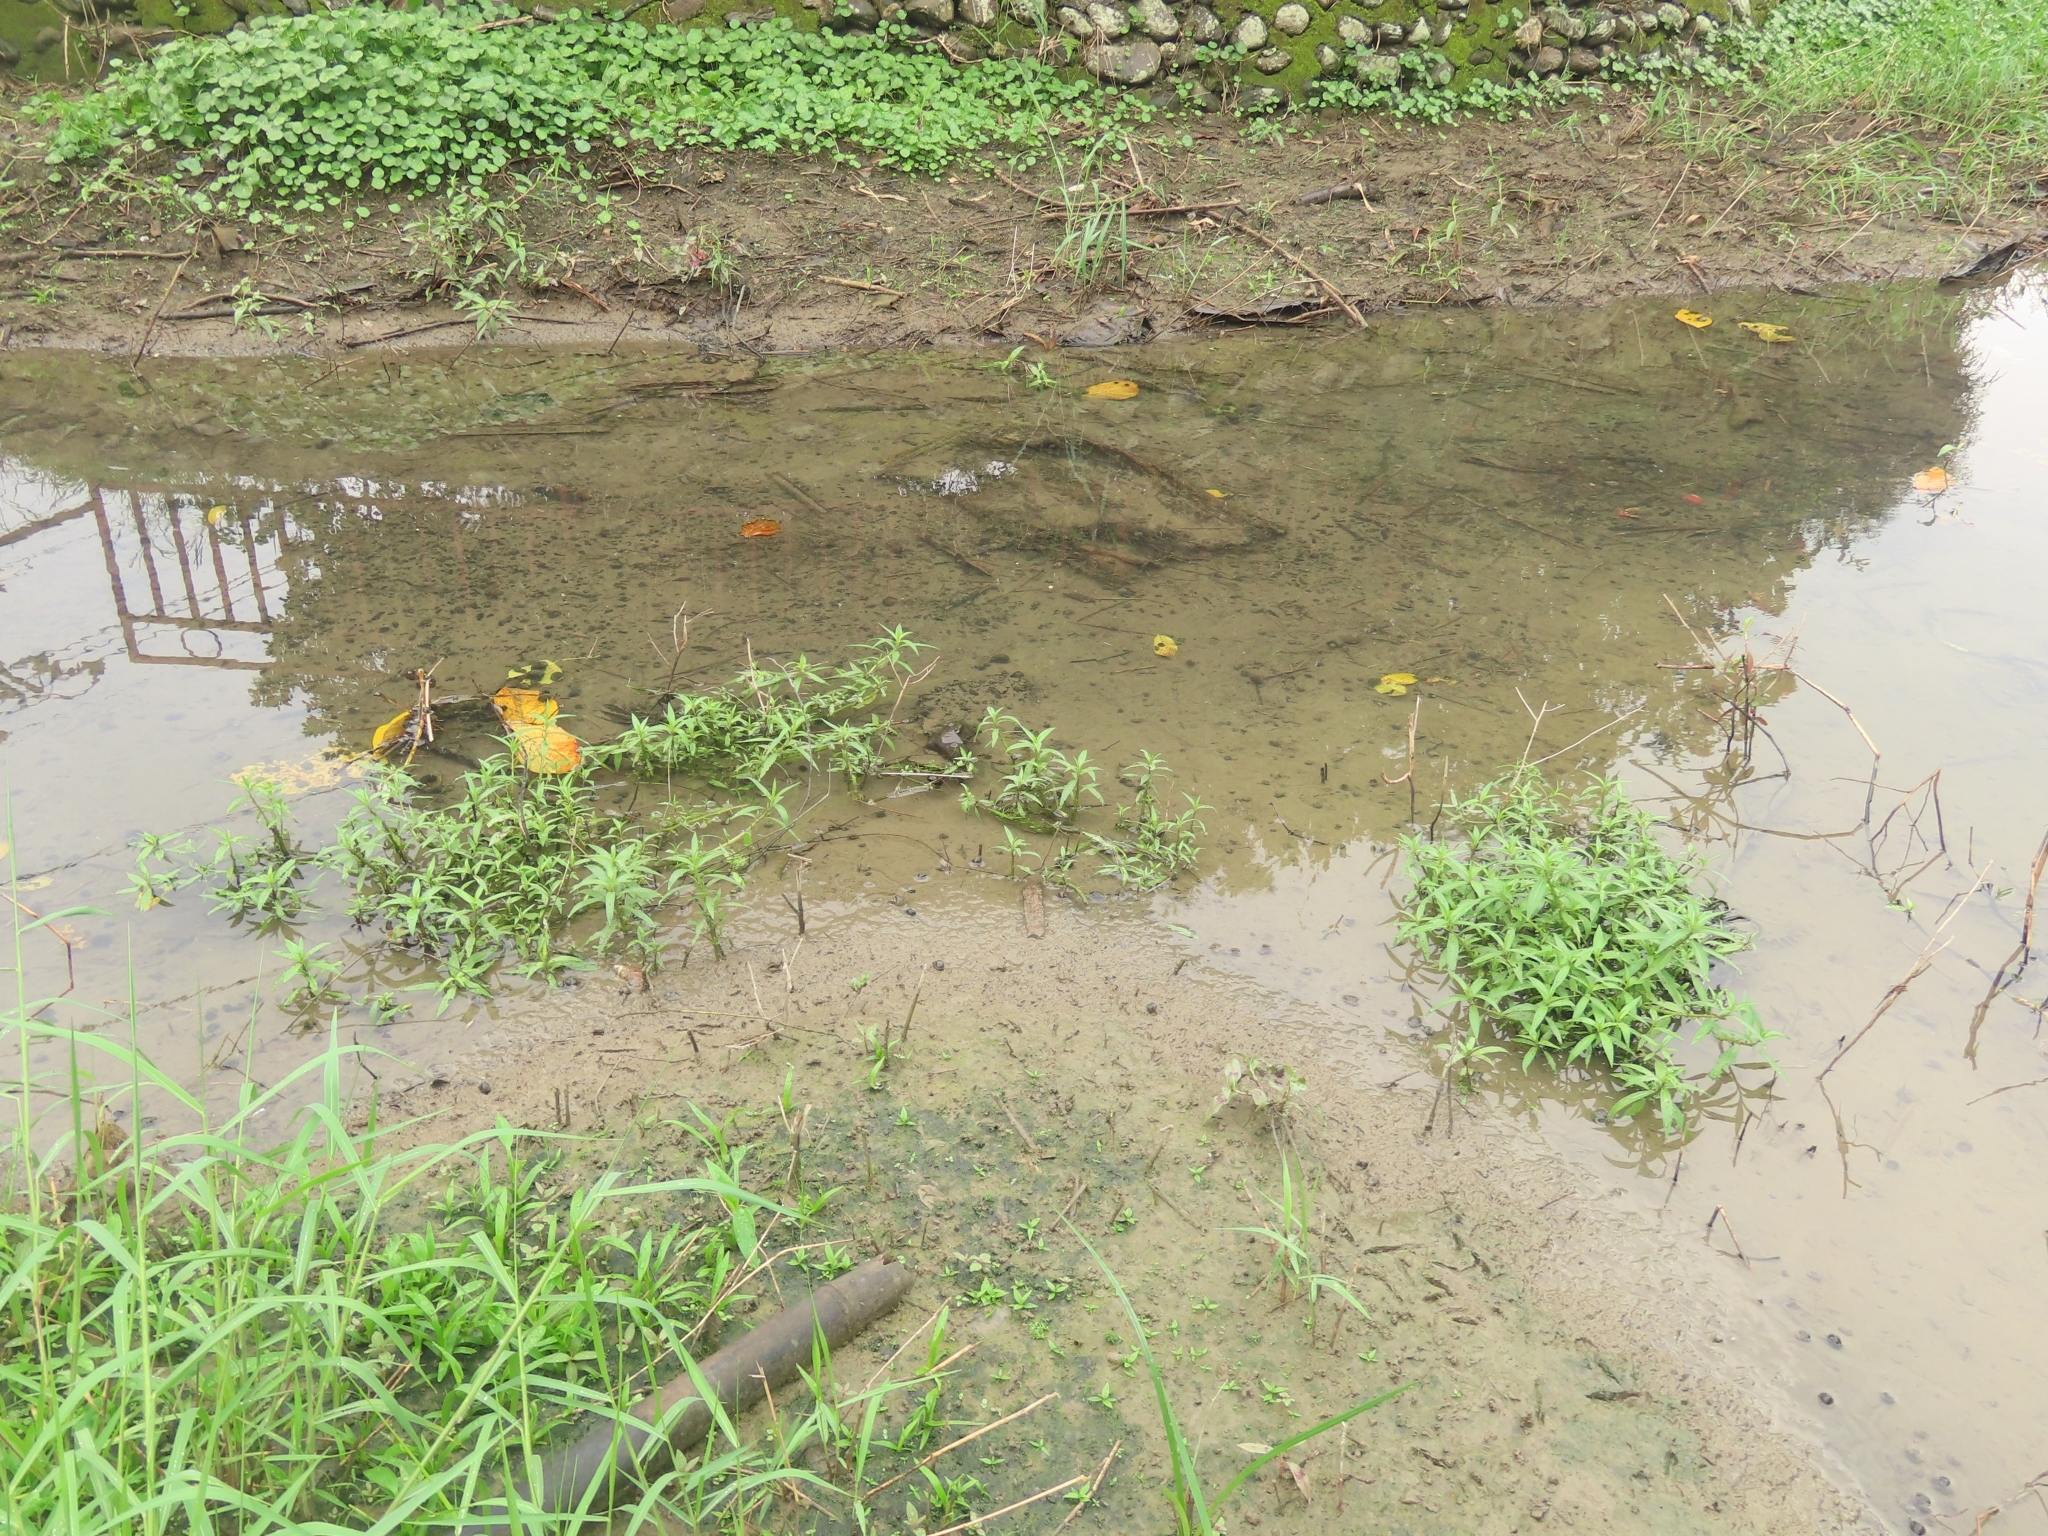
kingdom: Plantae
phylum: Tracheophyta
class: Magnoliopsida
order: Solanales
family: Hydroleaceae
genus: Hydrolea
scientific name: Hydrolea zeylanica
